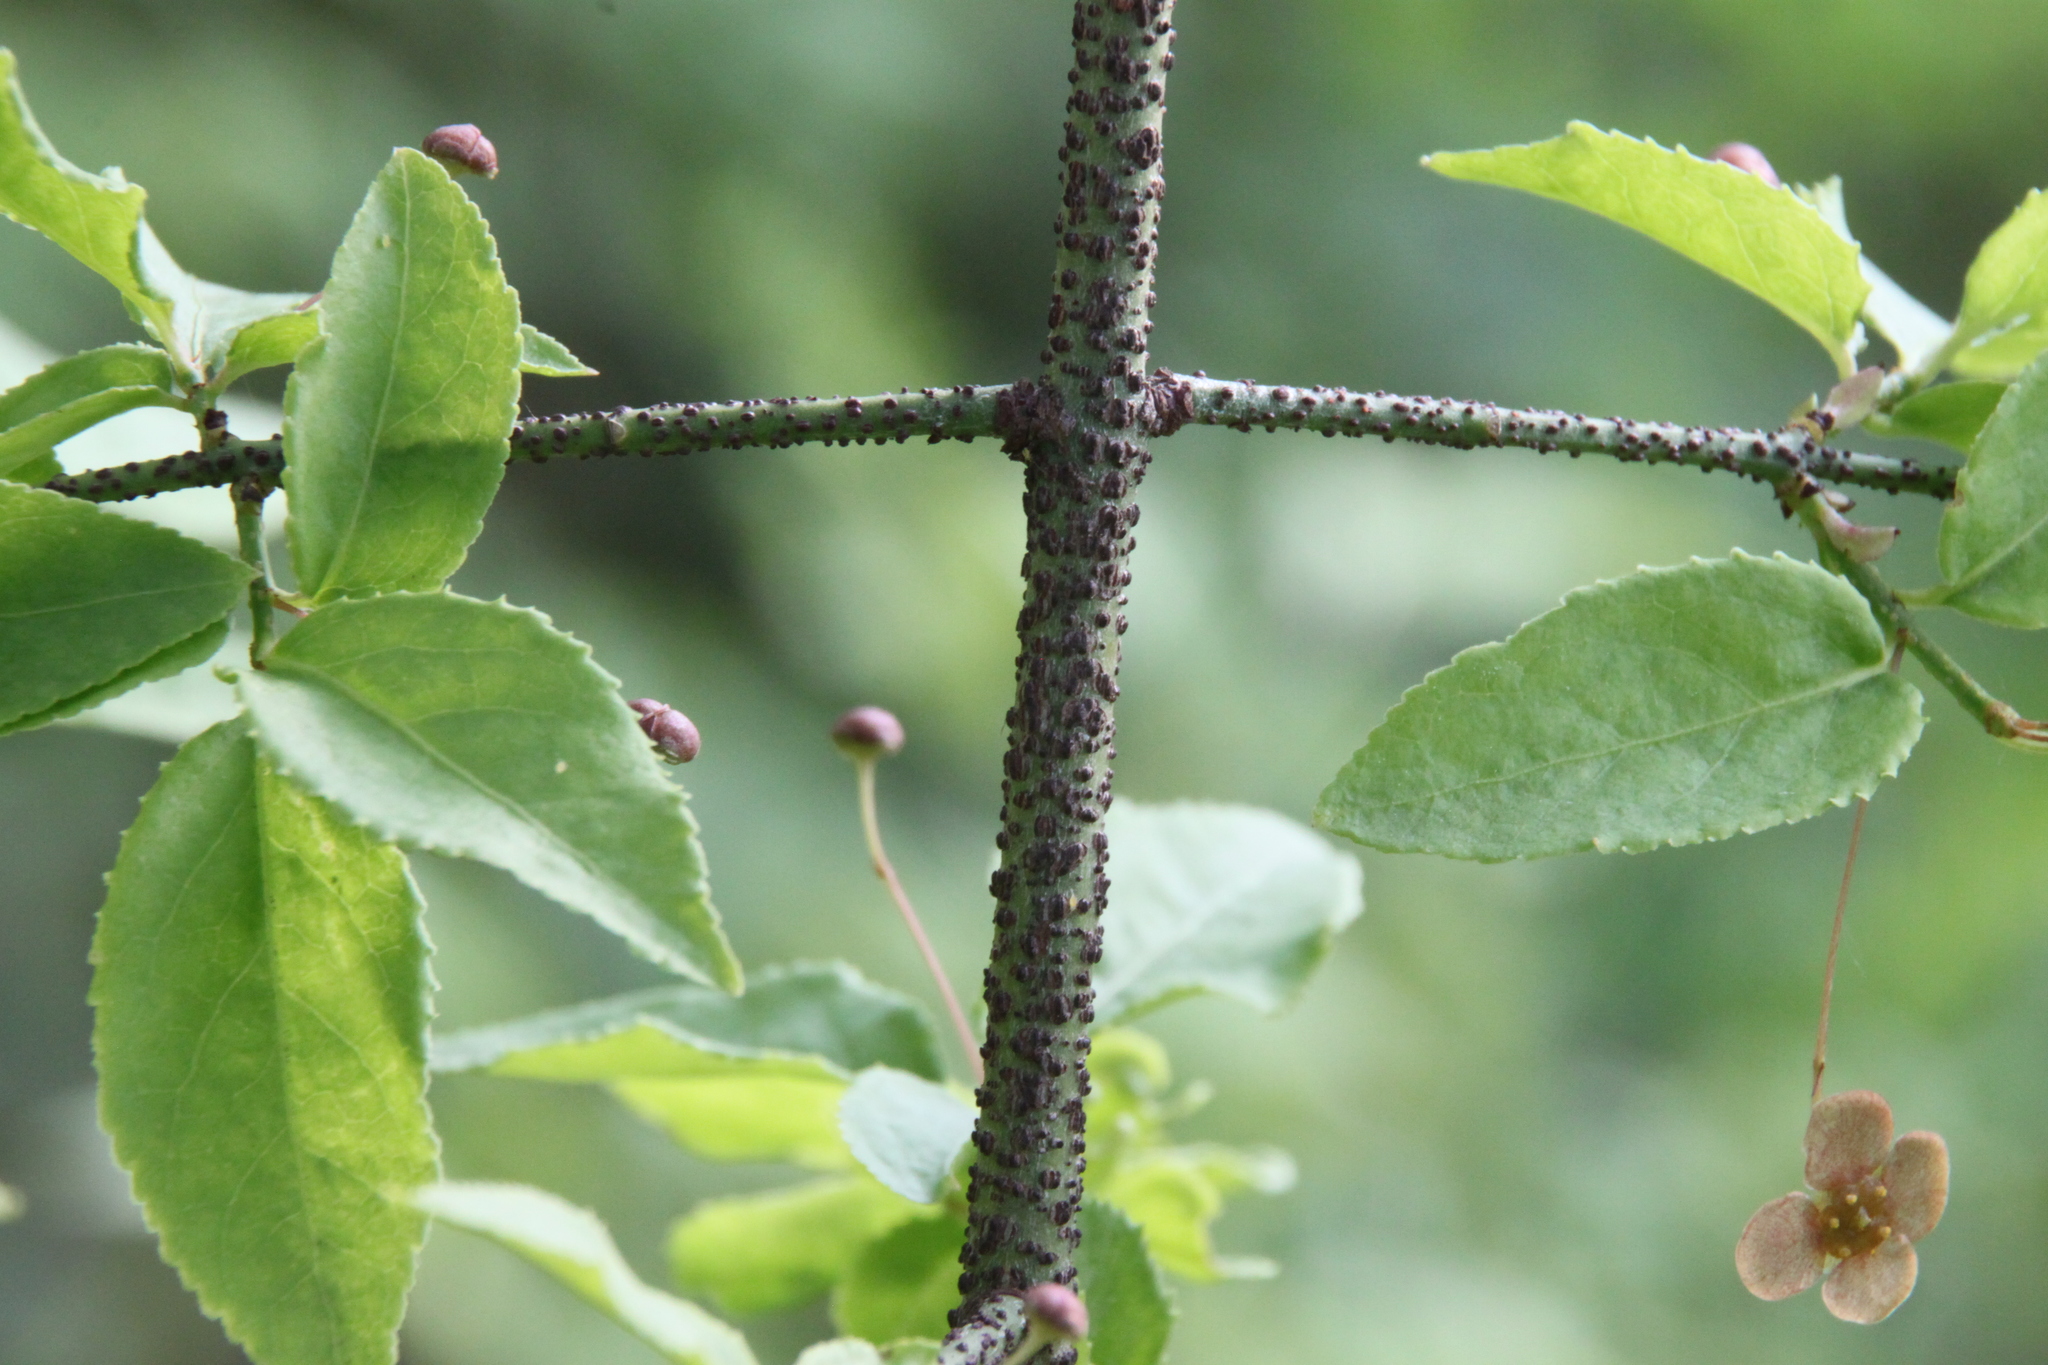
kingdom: Plantae
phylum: Tracheophyta
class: Magnoliopsida
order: Celastrales
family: Celastraceae
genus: Euonymus
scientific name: Euonymus verrucosus
